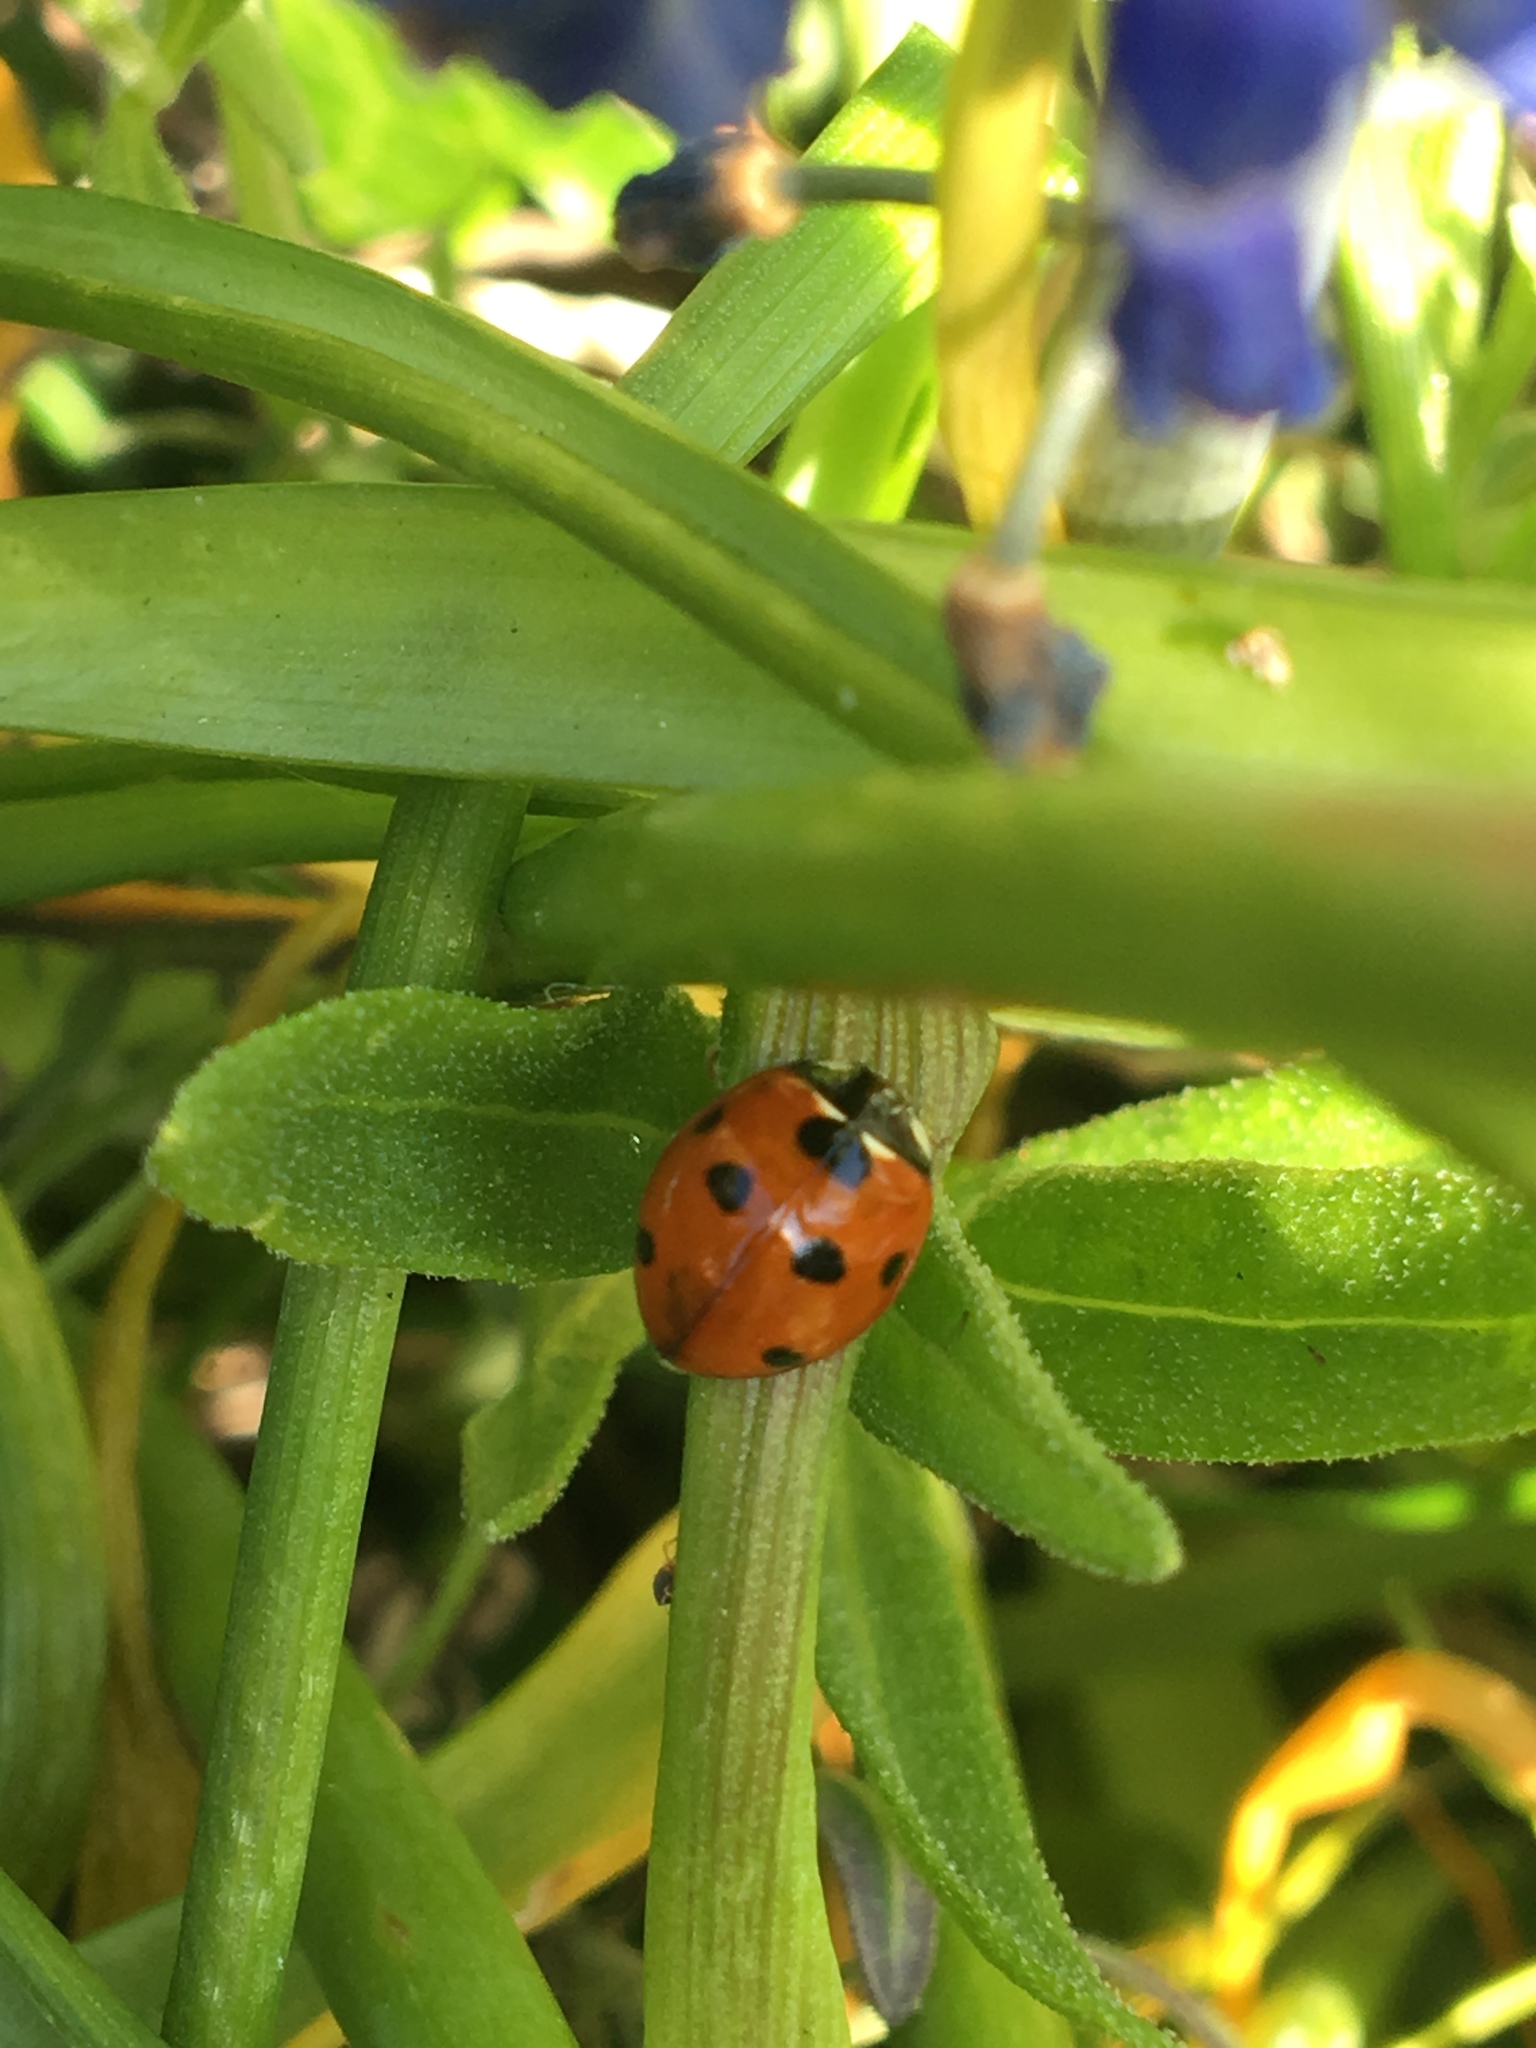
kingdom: Animalia
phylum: Arthropoda
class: Insecta
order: Coleoptera
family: Coccinellidae
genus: Coccinella
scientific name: Coccinella septempunctata
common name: Sevenspotted lady beetle
